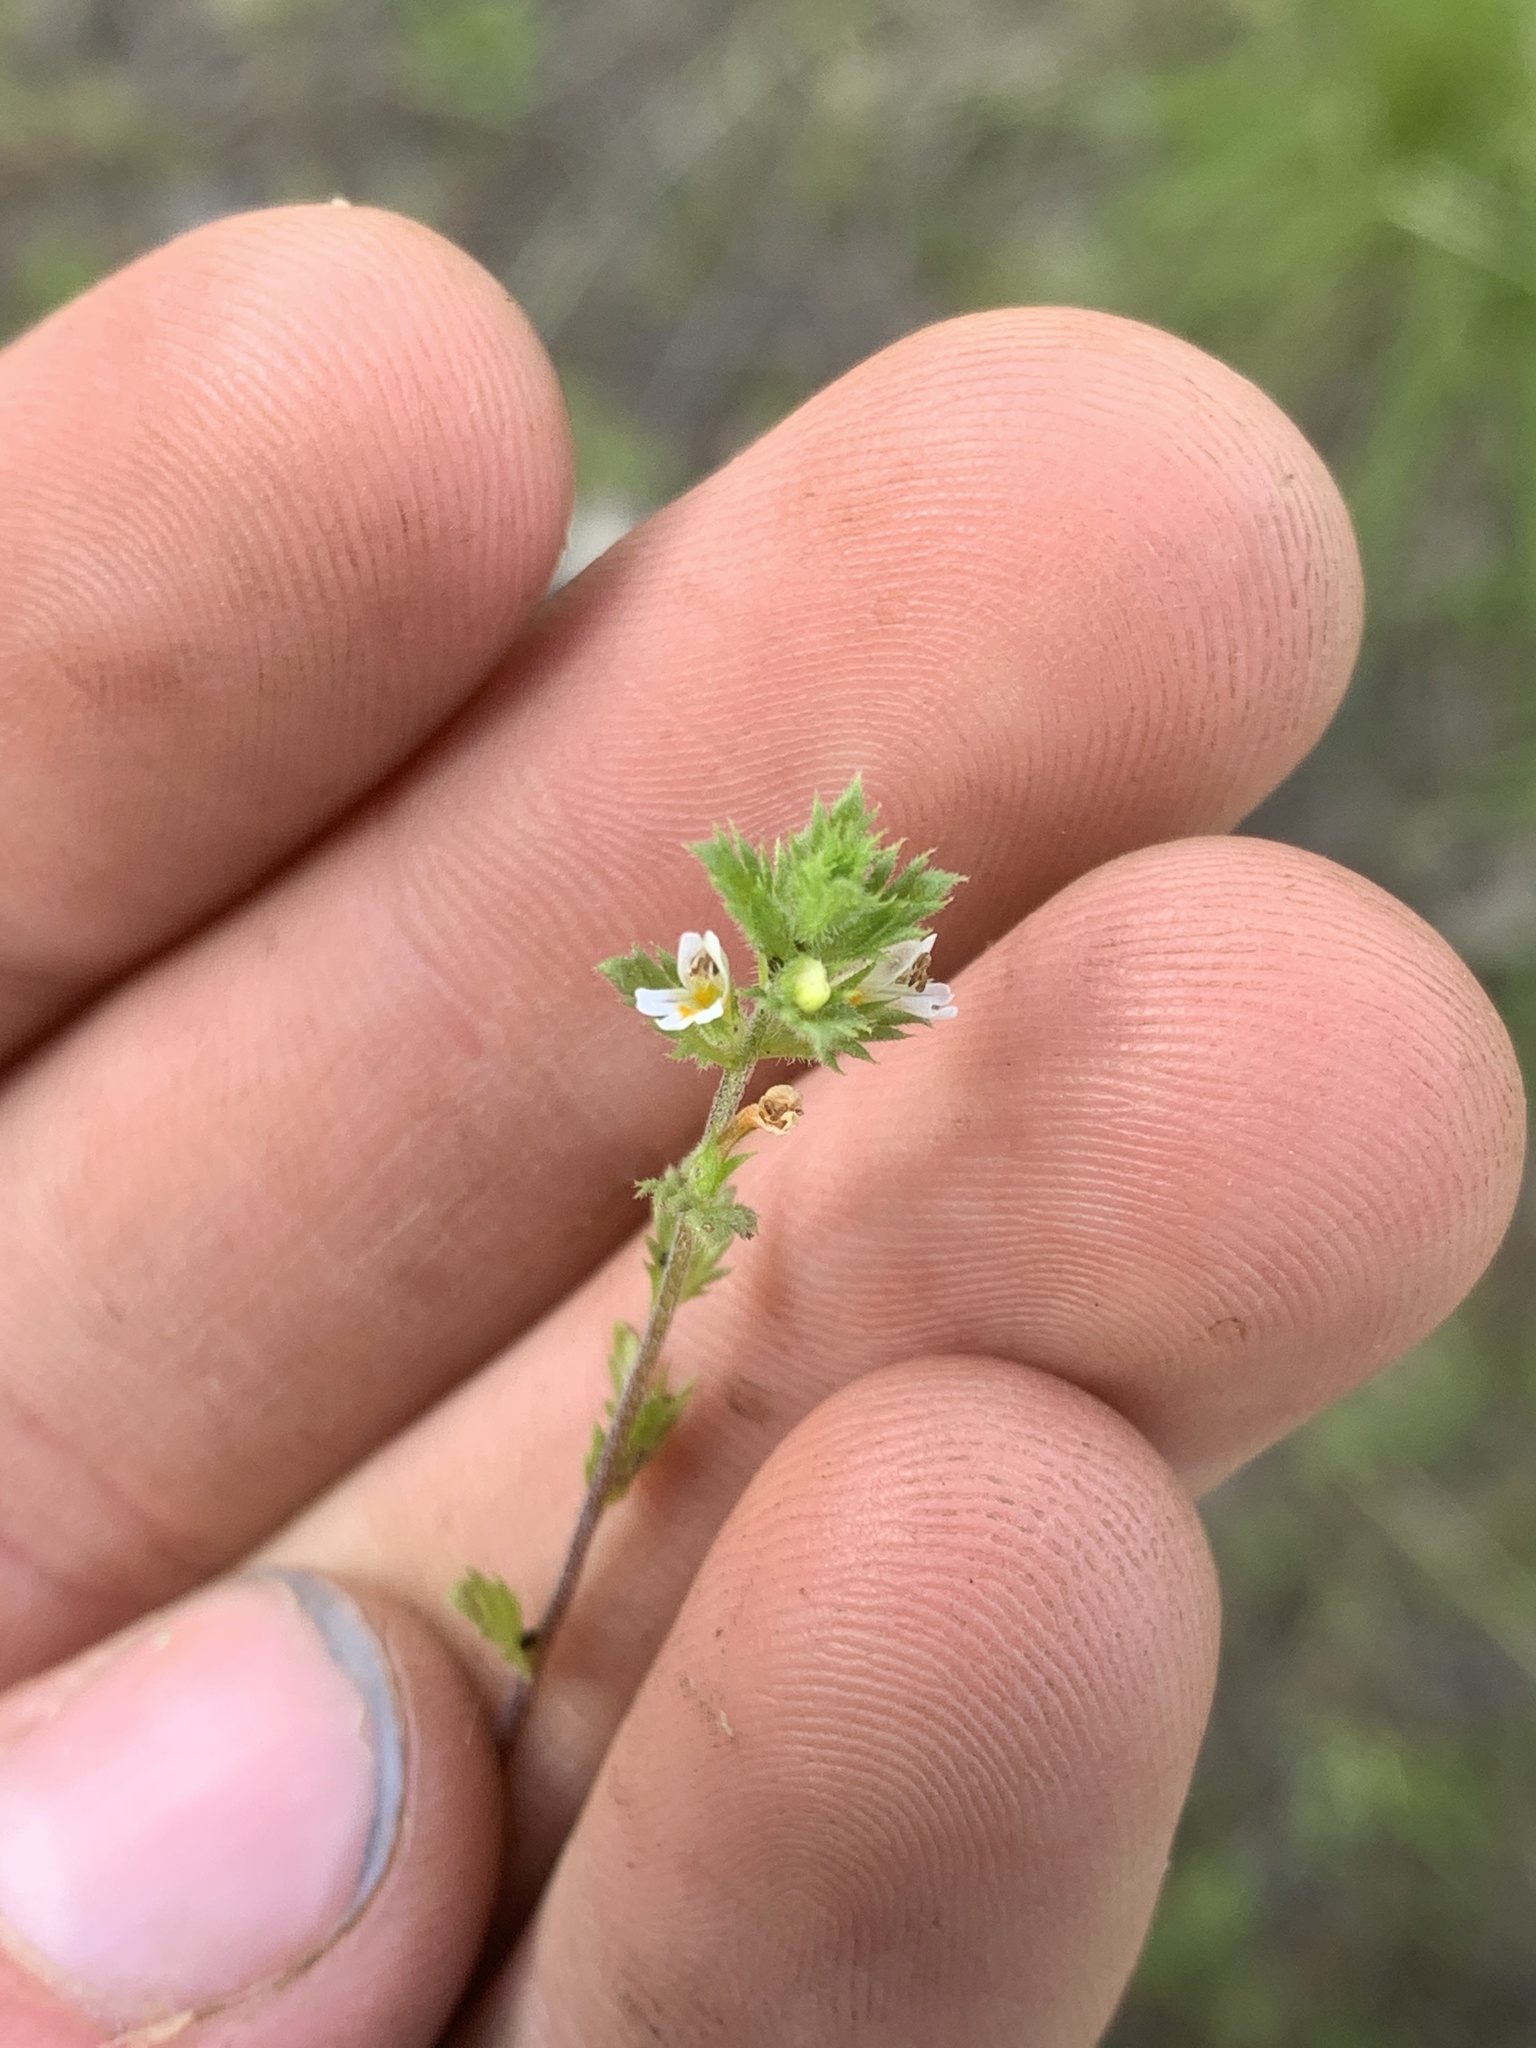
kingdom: Plantae
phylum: Tracheophyta
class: Magnoliopsida
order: Lamiales
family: Orobanchaceae
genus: Euphrasia
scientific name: Euphrasia nemorosa
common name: Common eyebright
